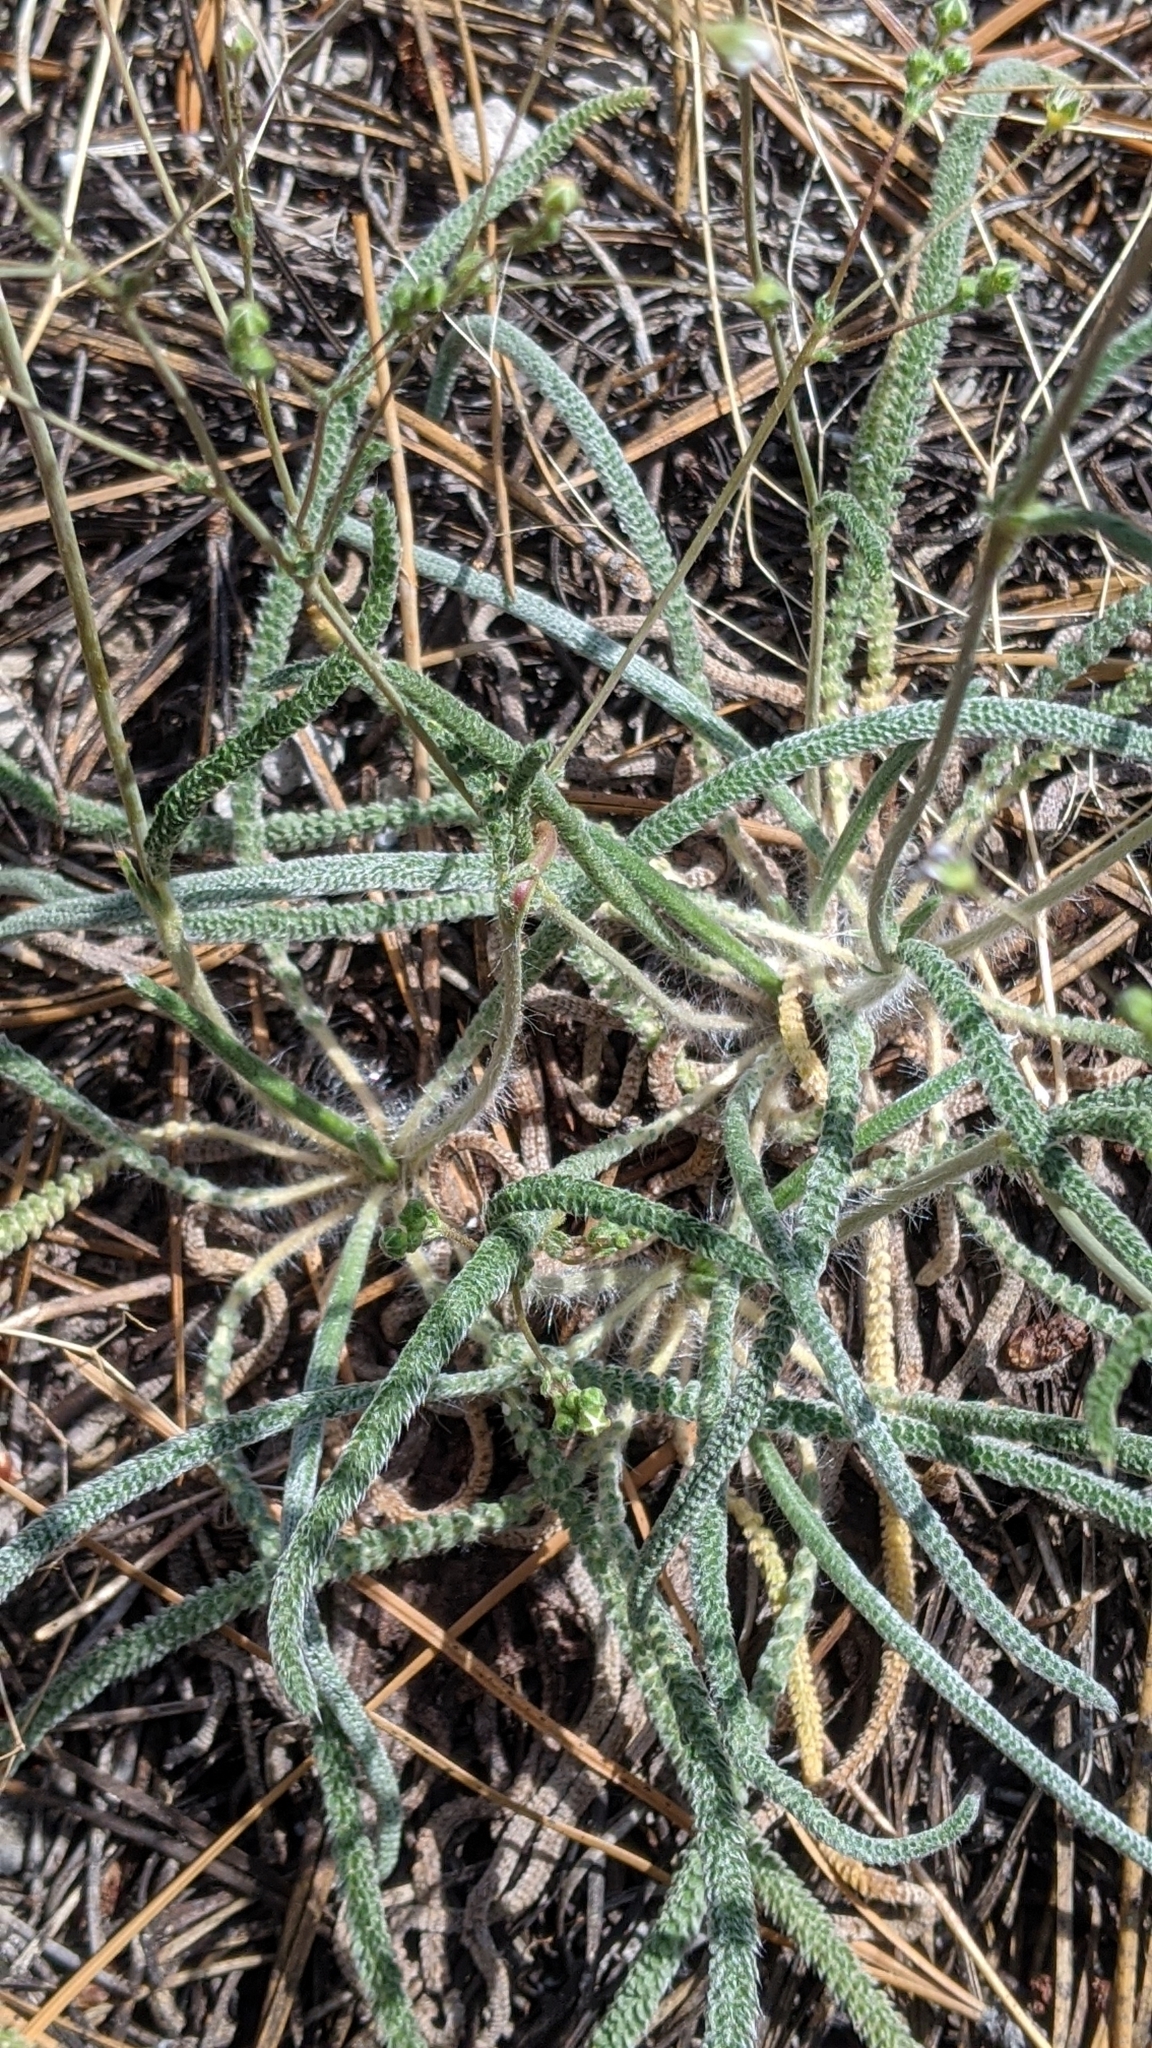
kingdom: Plantae
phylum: Tracheophyta
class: Magnoliopsida
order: Rosales
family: Rosaceae
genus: Potentilla
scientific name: Potentilla santolinoides
